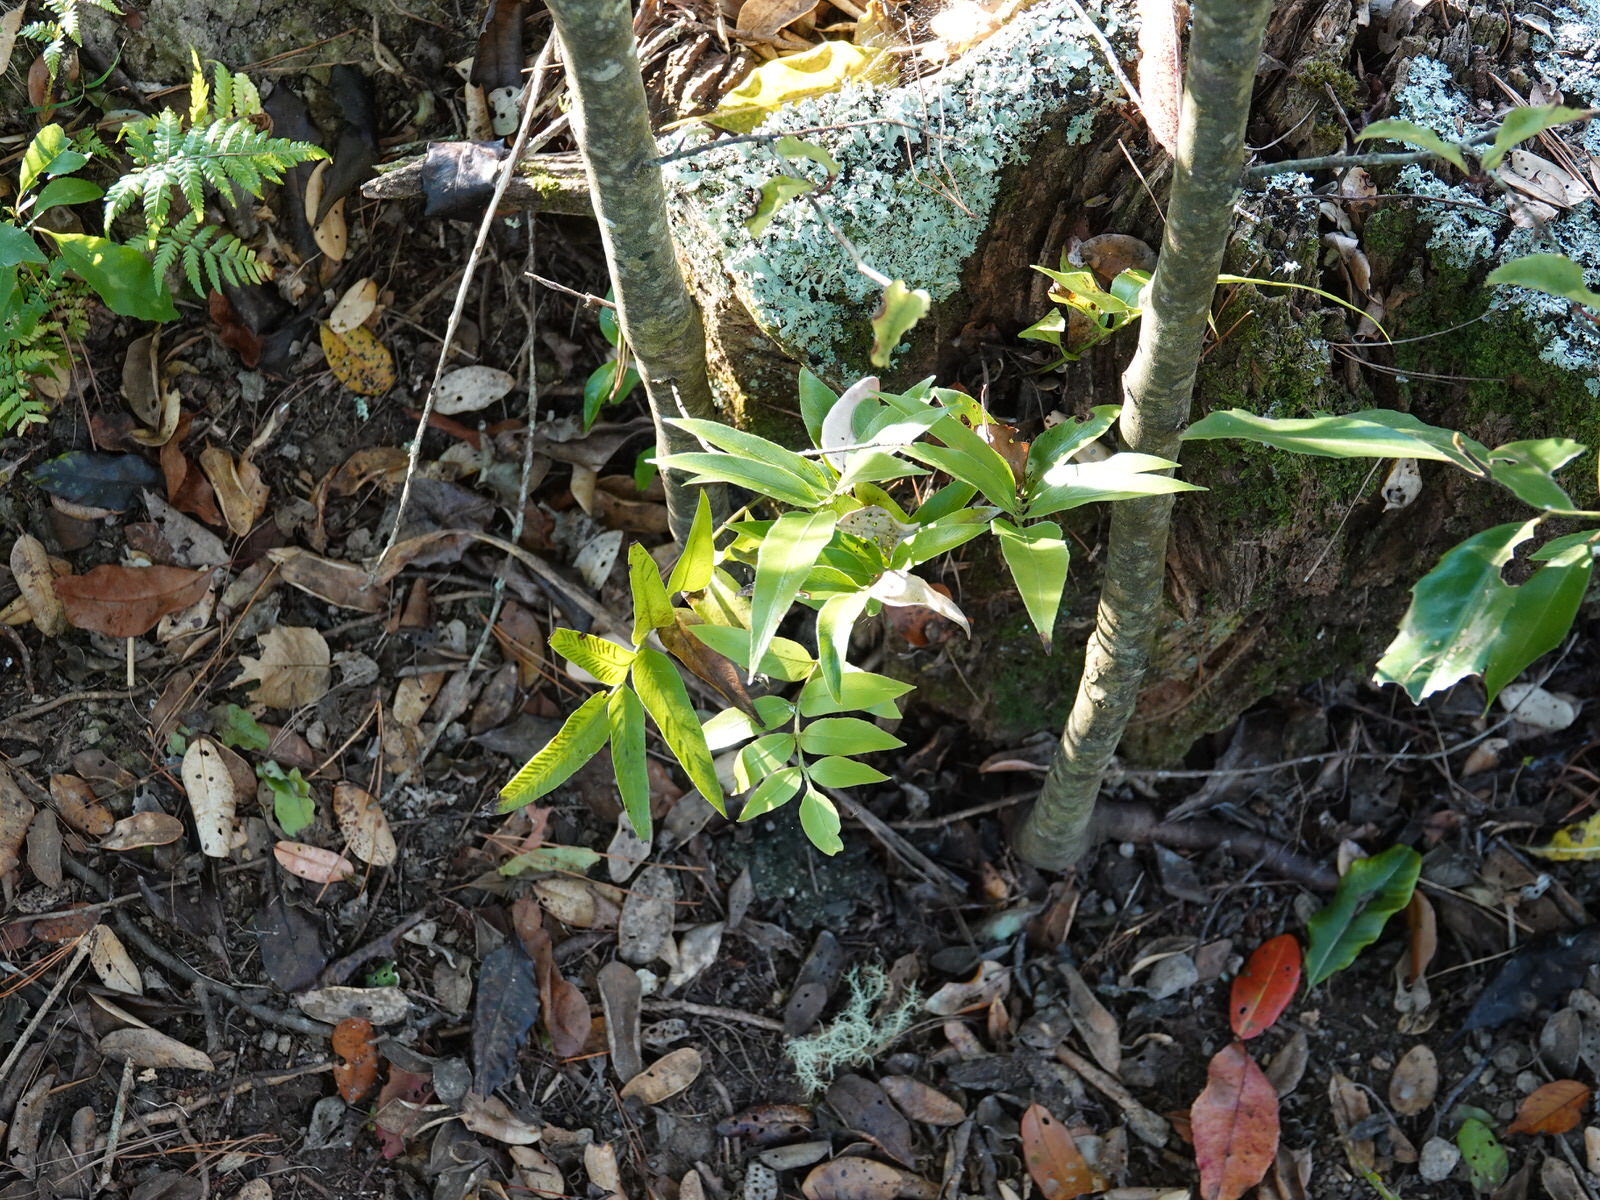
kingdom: Plantae
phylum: Tracheophyta
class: Polypodiopsida
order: Polypodiales
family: Aspleniaceae
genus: Asplenium
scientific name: Asplenium oblongifolium
